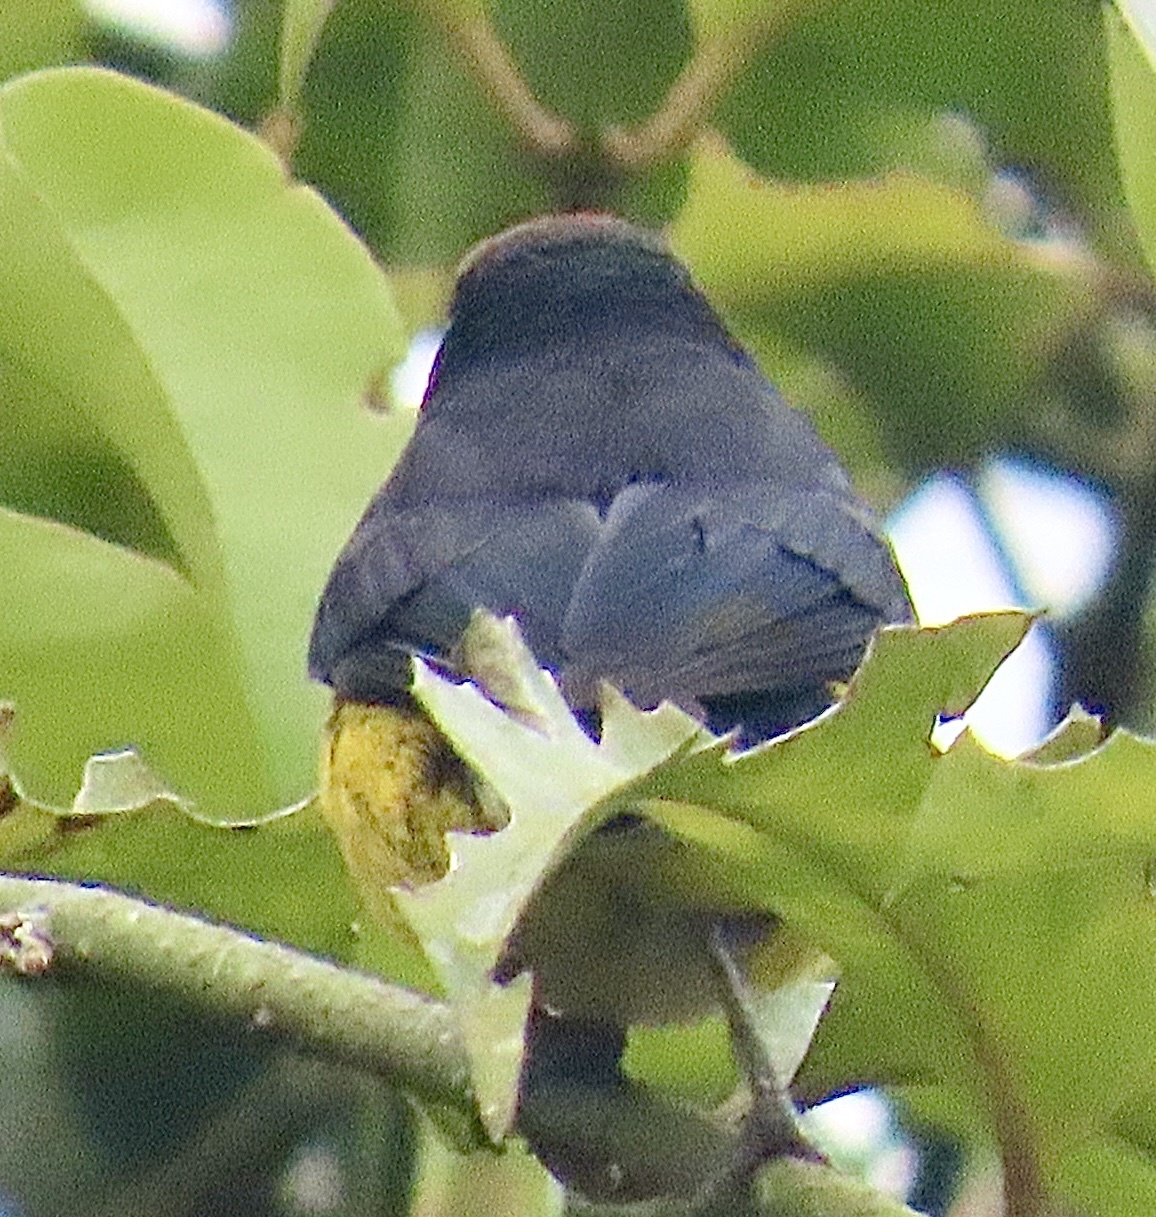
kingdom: Animalia
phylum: Chordata
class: Aves
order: Passeriformes
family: Parulidae
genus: Myioborus
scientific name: Myioborus miniatus
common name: Slate-throated redstart
